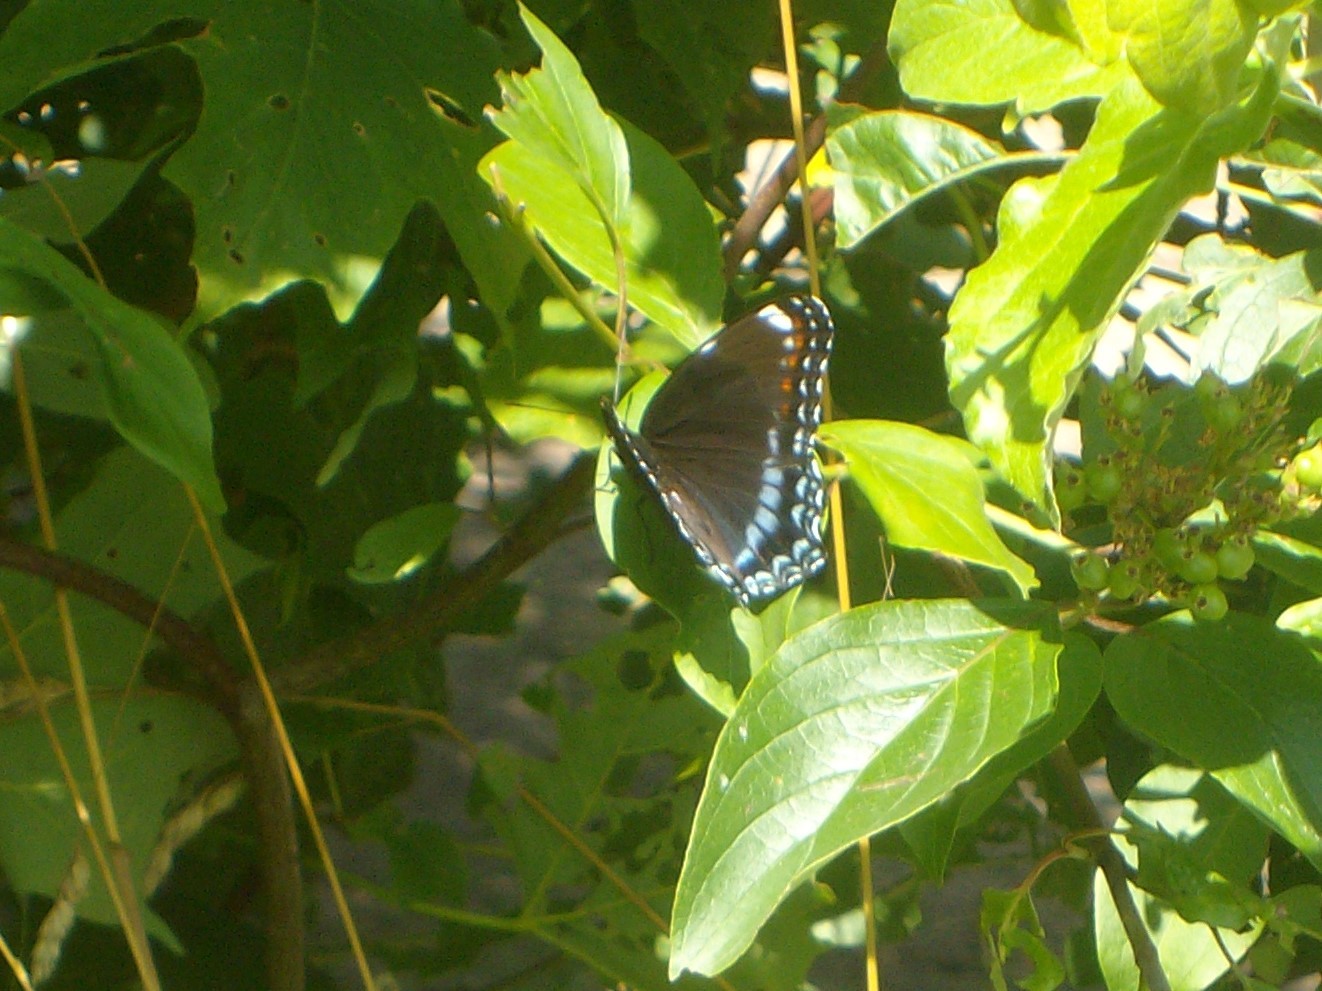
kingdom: Animalia
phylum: Arthropoda
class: Insecta
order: Lepidoptera
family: Nymphalidae
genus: Limenitis
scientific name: Limenitis arthemis
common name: Red-spotted admiral
